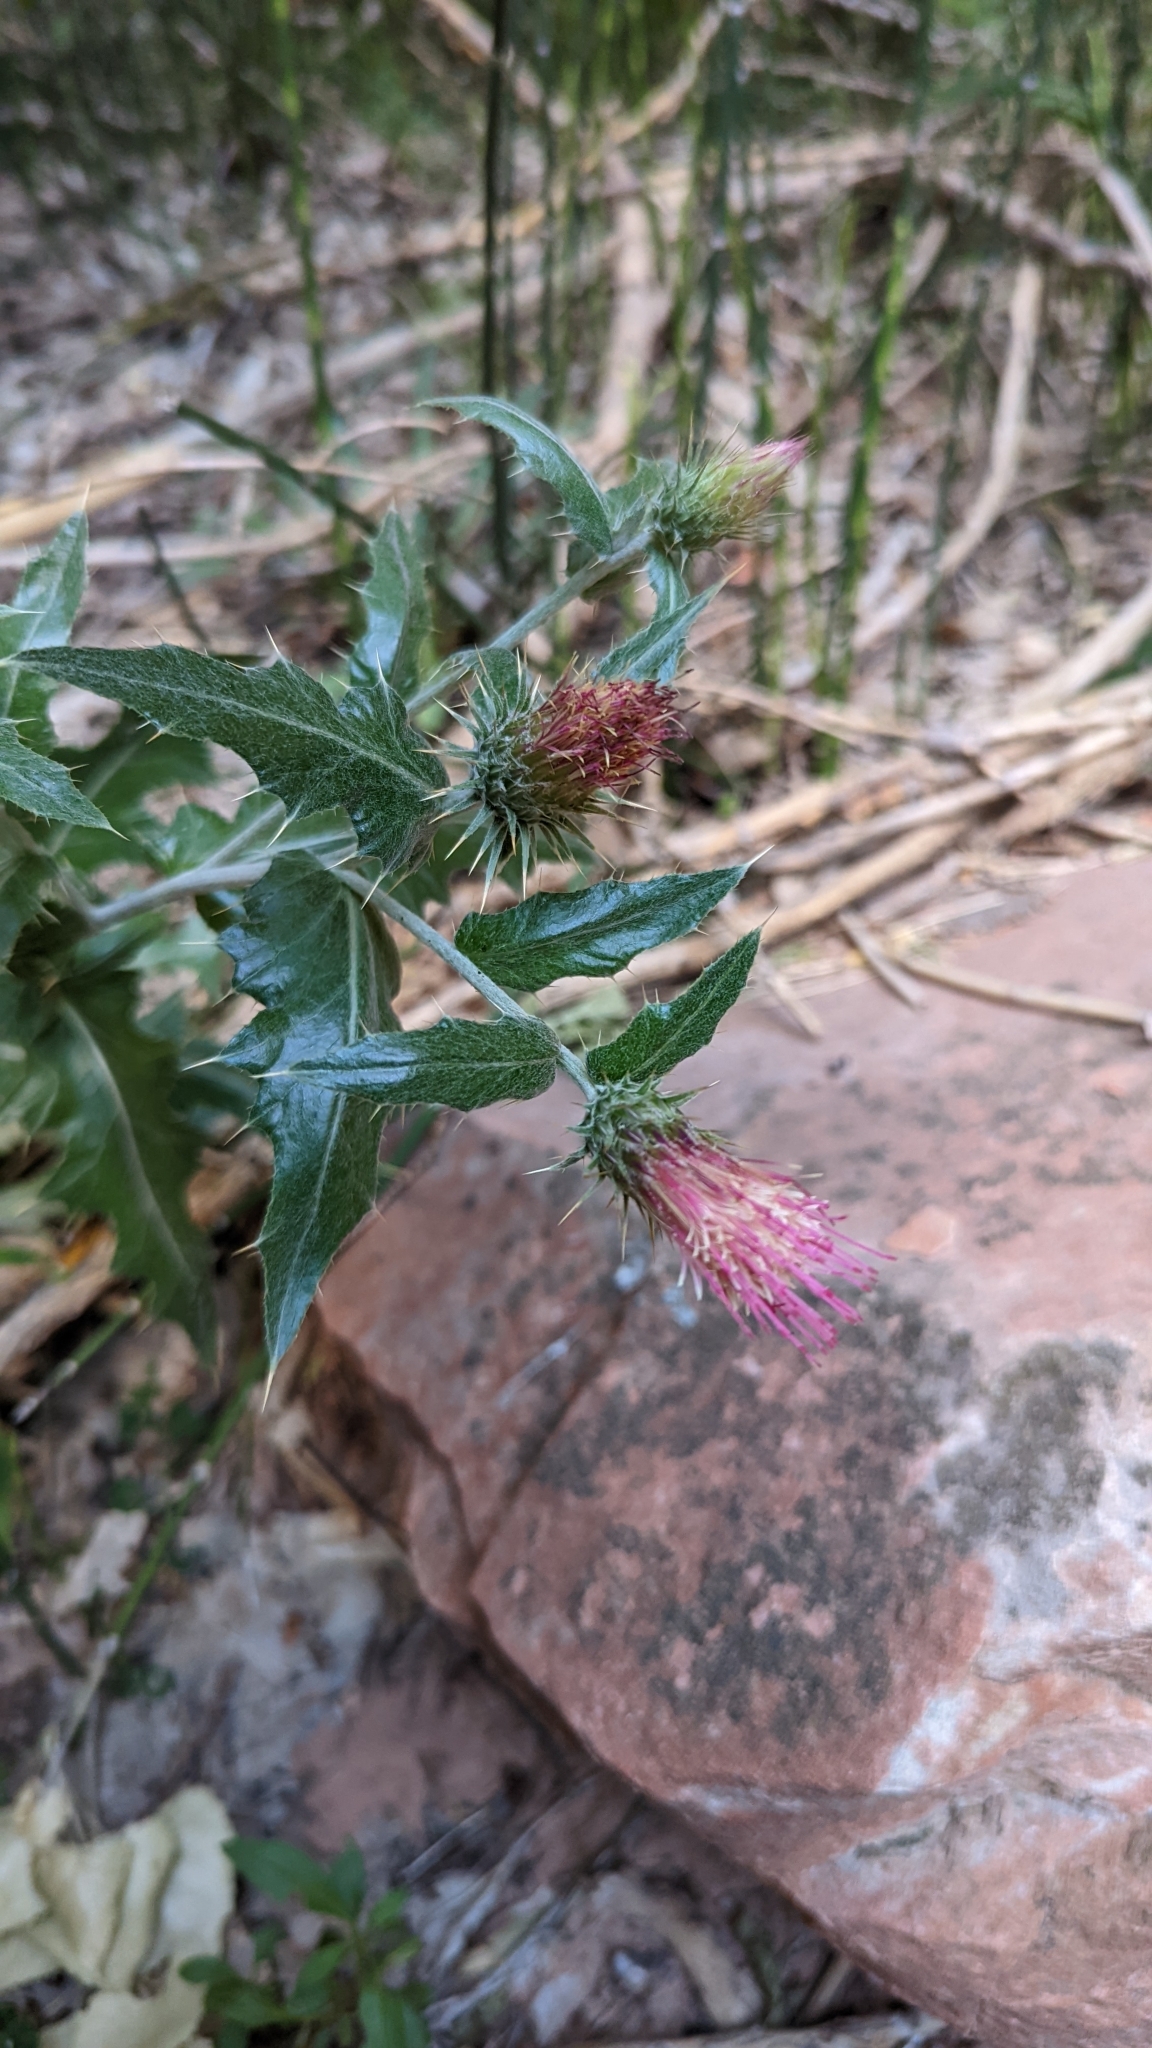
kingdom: Plantae
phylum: Tracheophyta
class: Magnoliopsida
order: Asterales
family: Asteraceae
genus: Cirsium
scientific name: Cirsium arizonicum
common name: Arizona thistle
